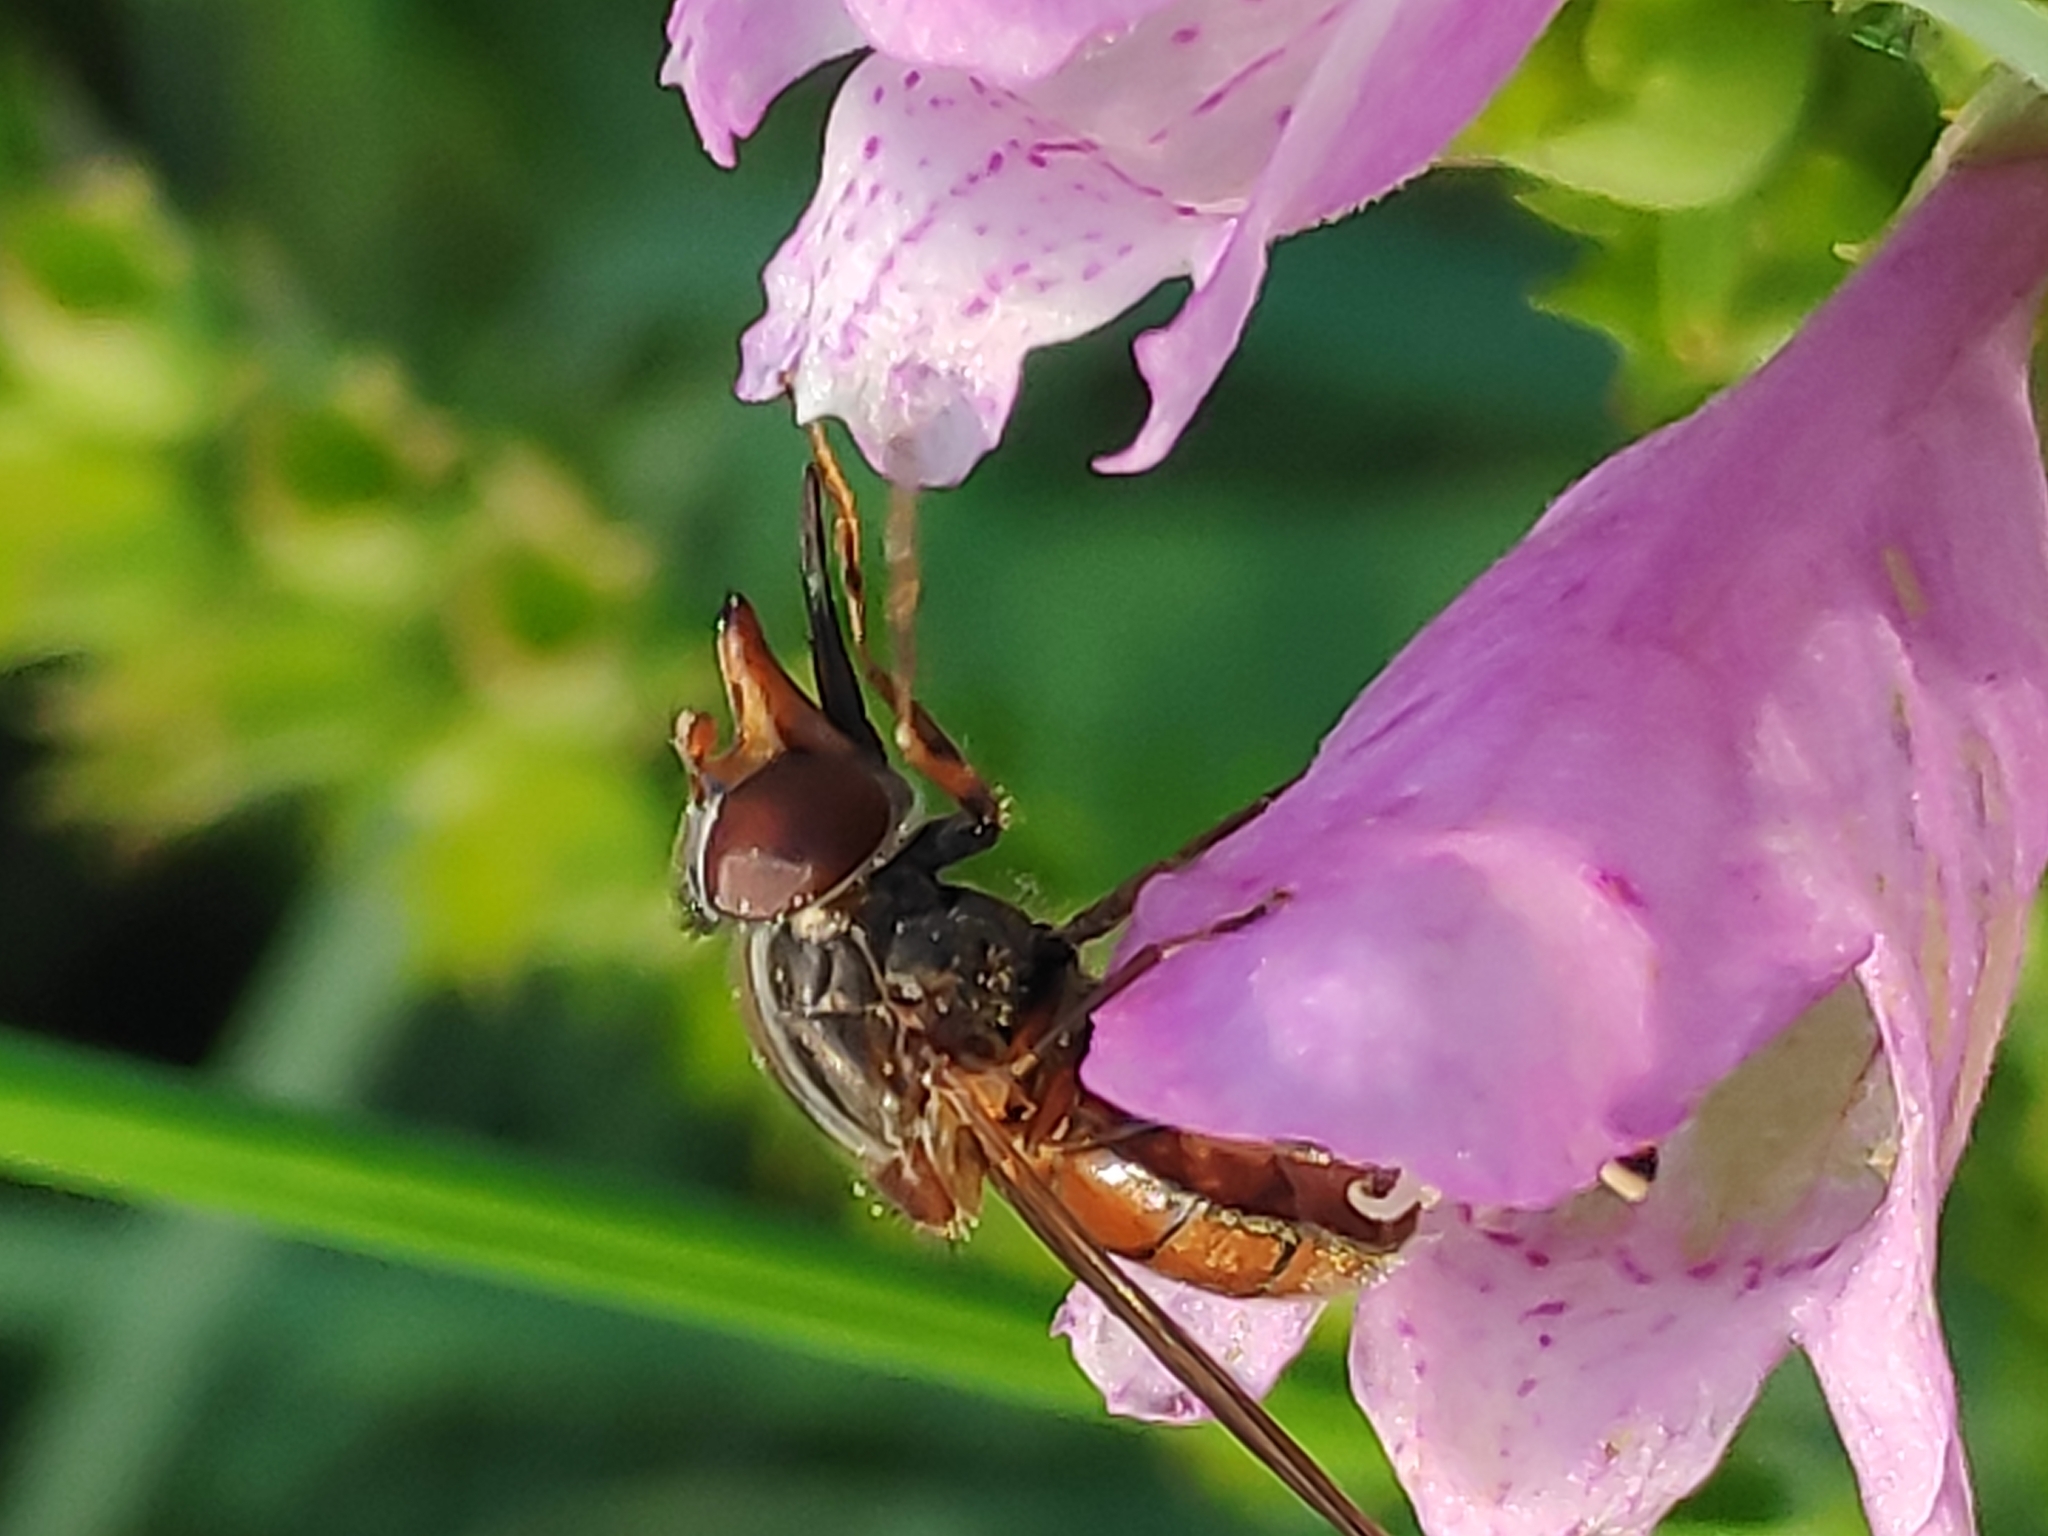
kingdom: Animalia
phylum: Arthropoda
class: Insecta
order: Diptera
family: Syrphidae
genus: Rhingia
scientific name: Rhingia campestris
